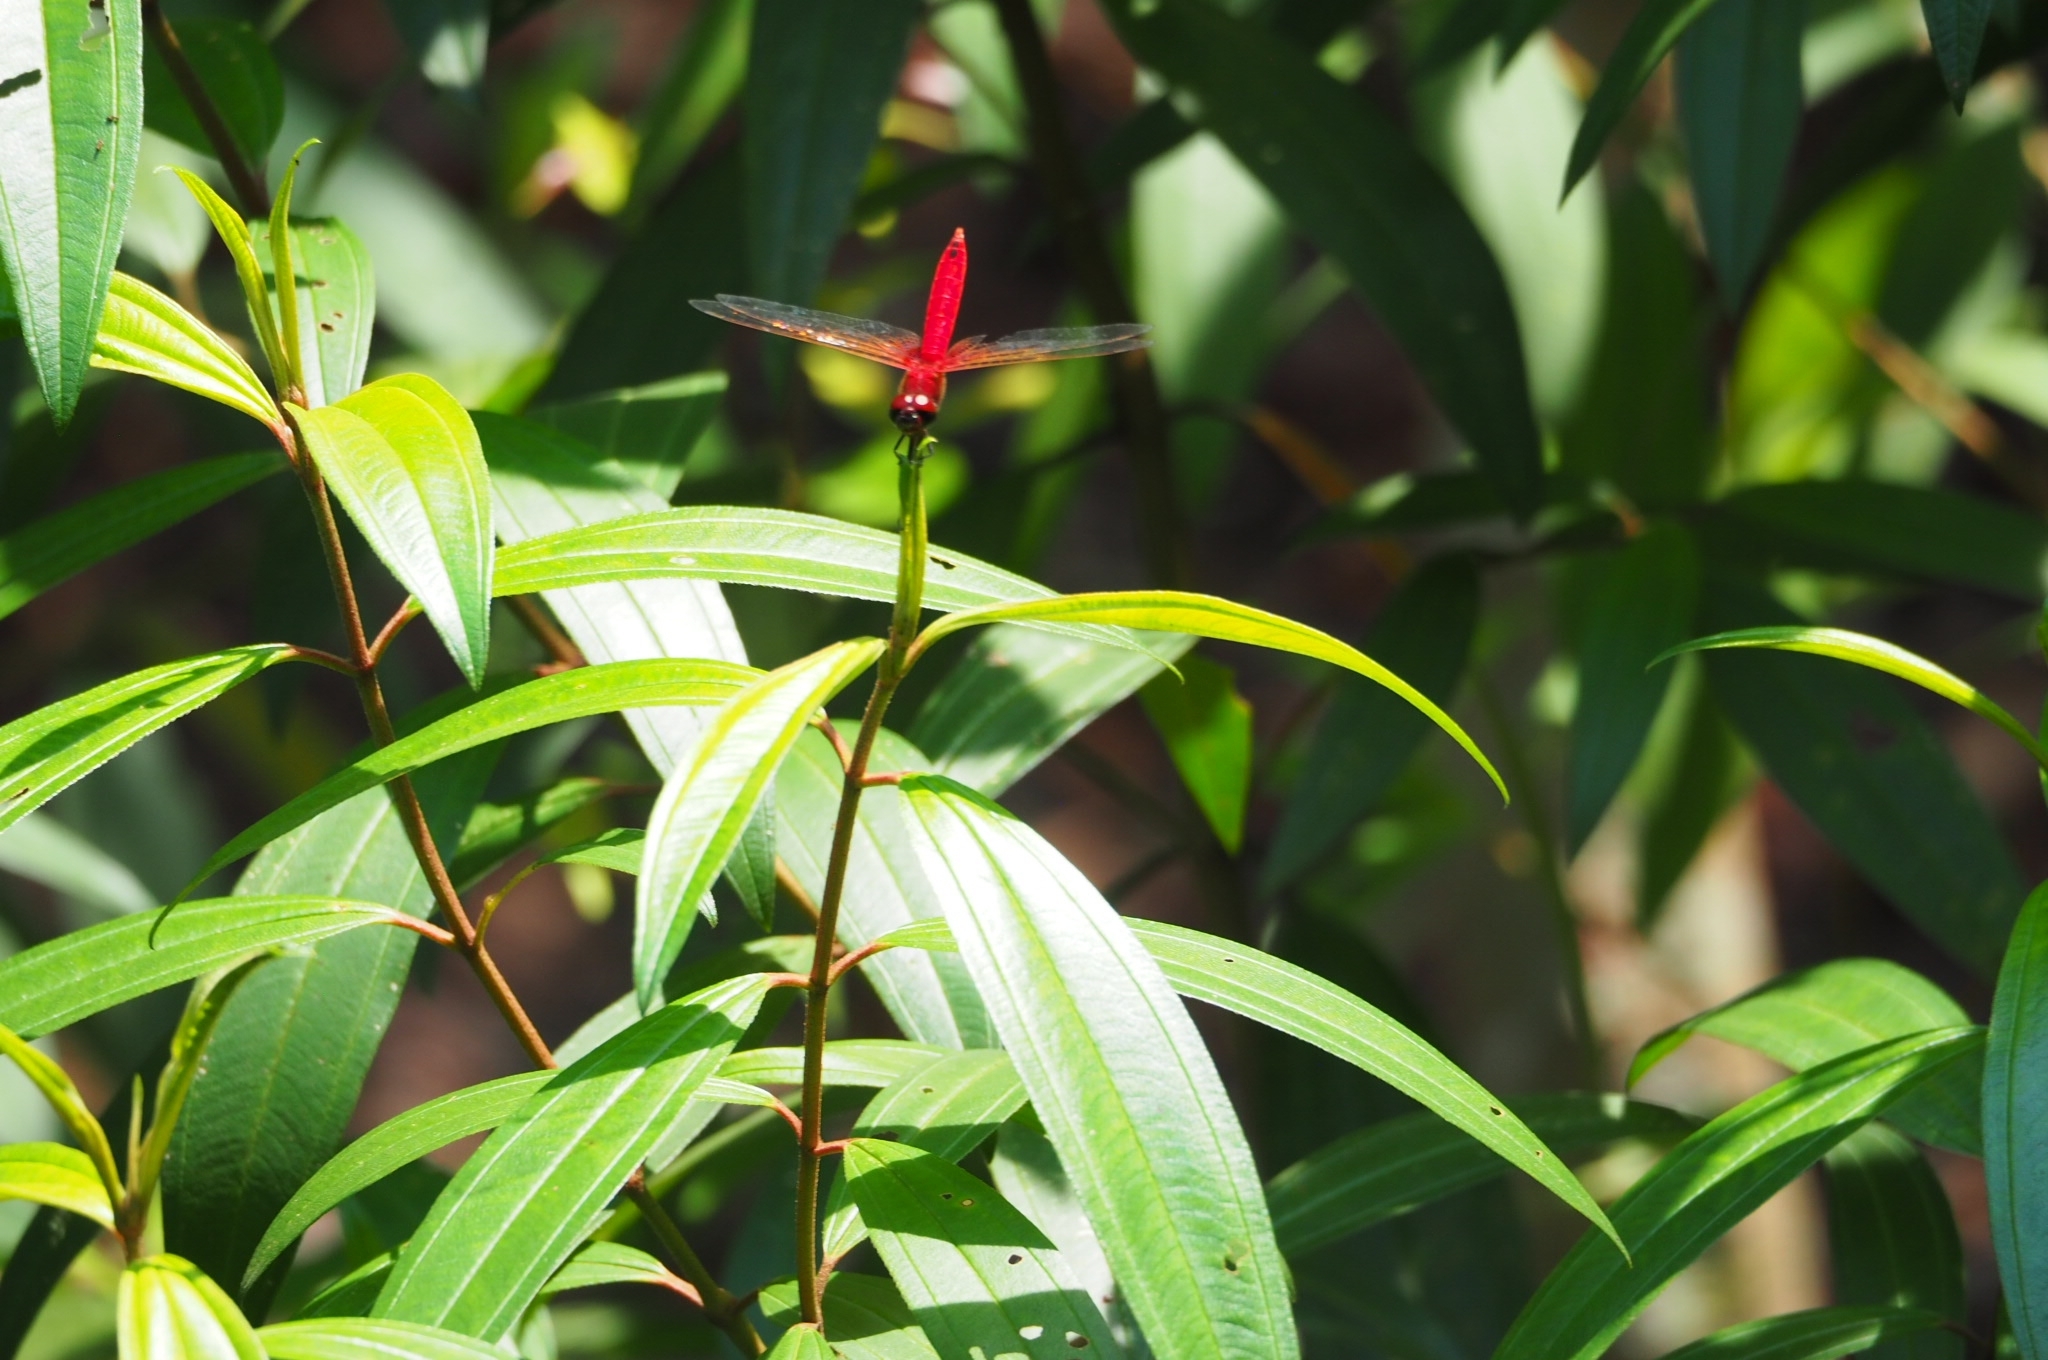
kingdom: Animalia
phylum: Arthropoda
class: Insecta
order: Odonata
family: Libellulidae
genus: Urothemis
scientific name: Urothemis signata
